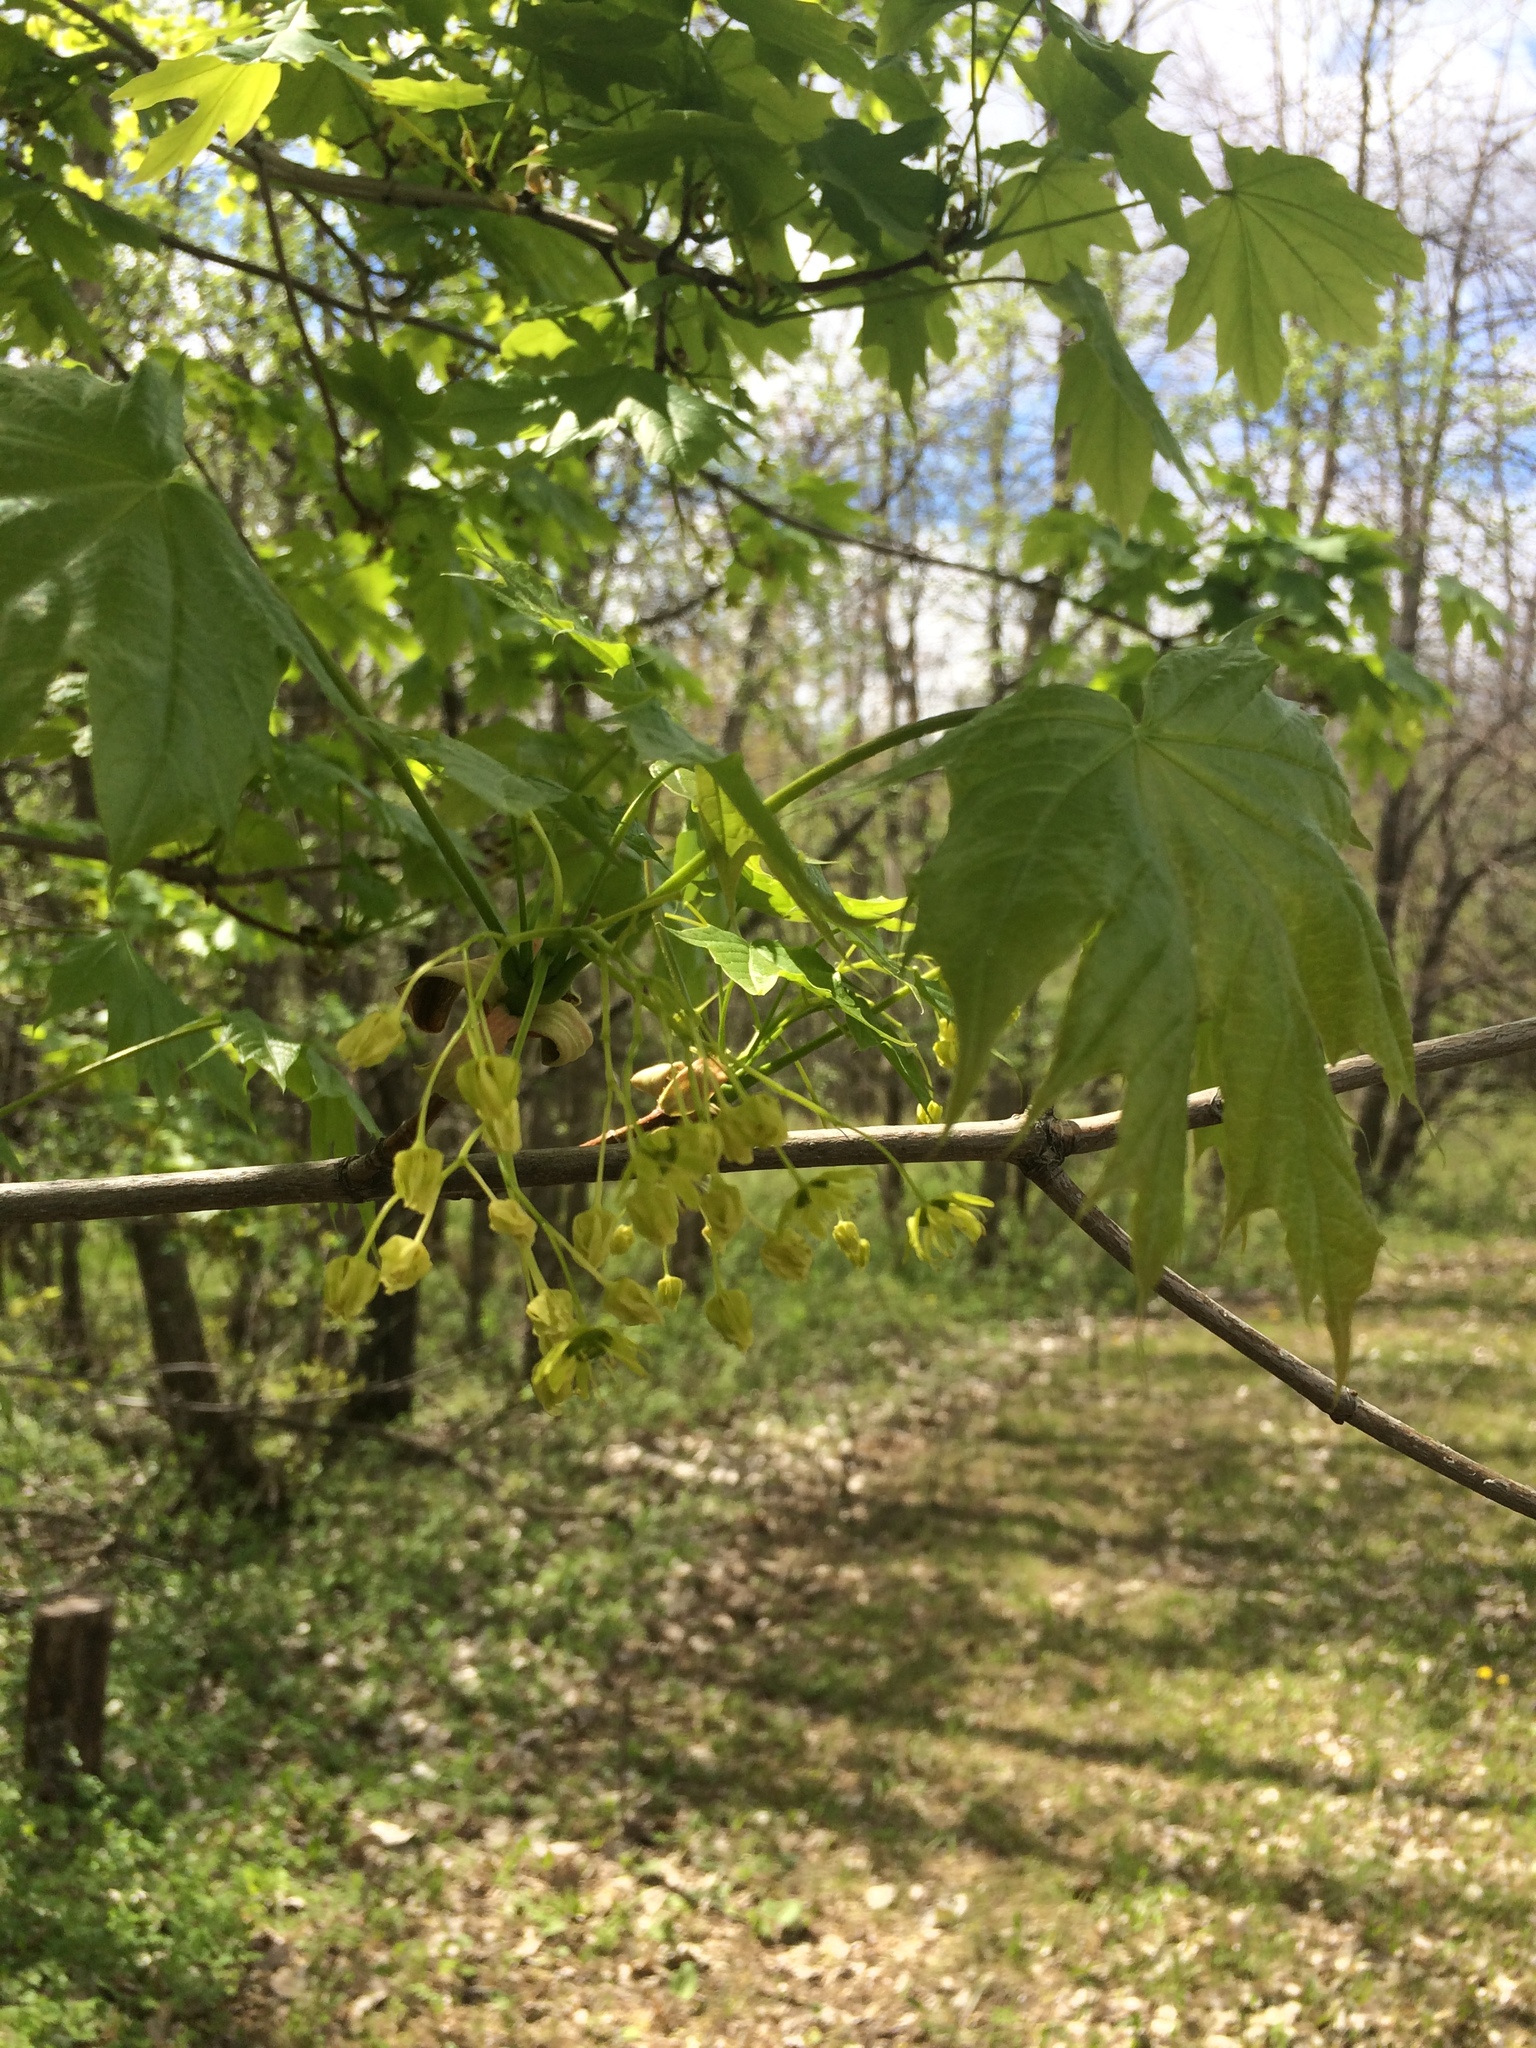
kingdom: Plantae
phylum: Tracheophyta
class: Magnoliopsida
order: Sapindales
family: Sapindaceae
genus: Acer
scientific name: Acer platanoides
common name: Norway maple
